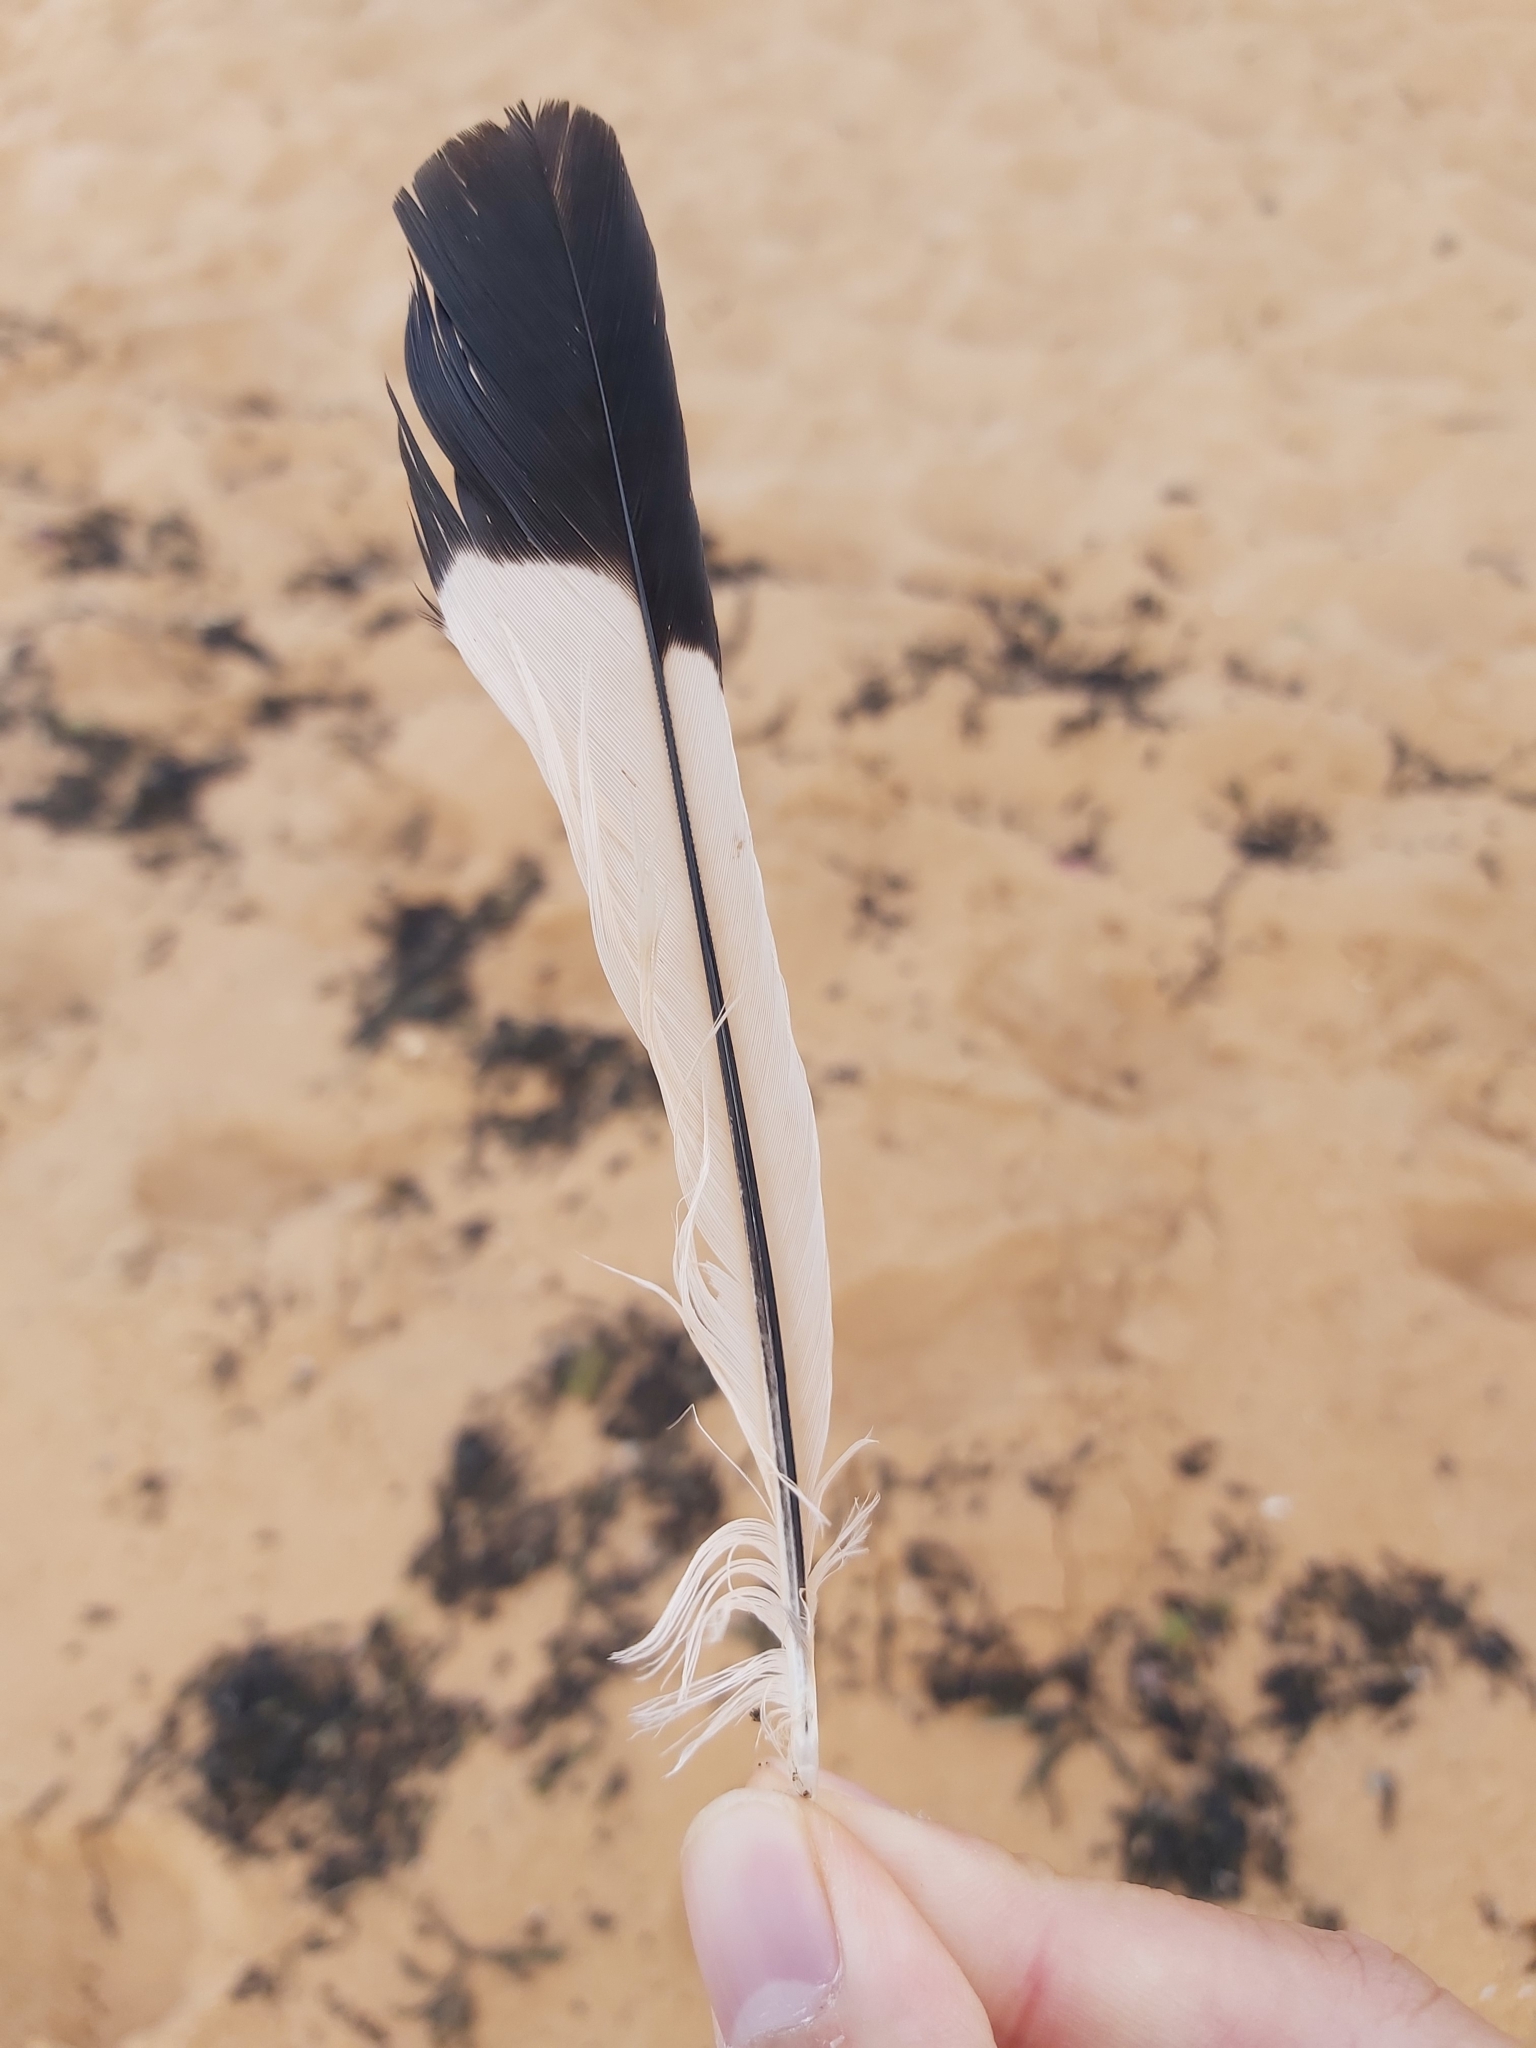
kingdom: Animalia
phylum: Chordata
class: Aves
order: Passeriformes
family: Cracticidae
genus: Gymnorhina
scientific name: Gymnorhina tibicen
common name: Australian magpie
